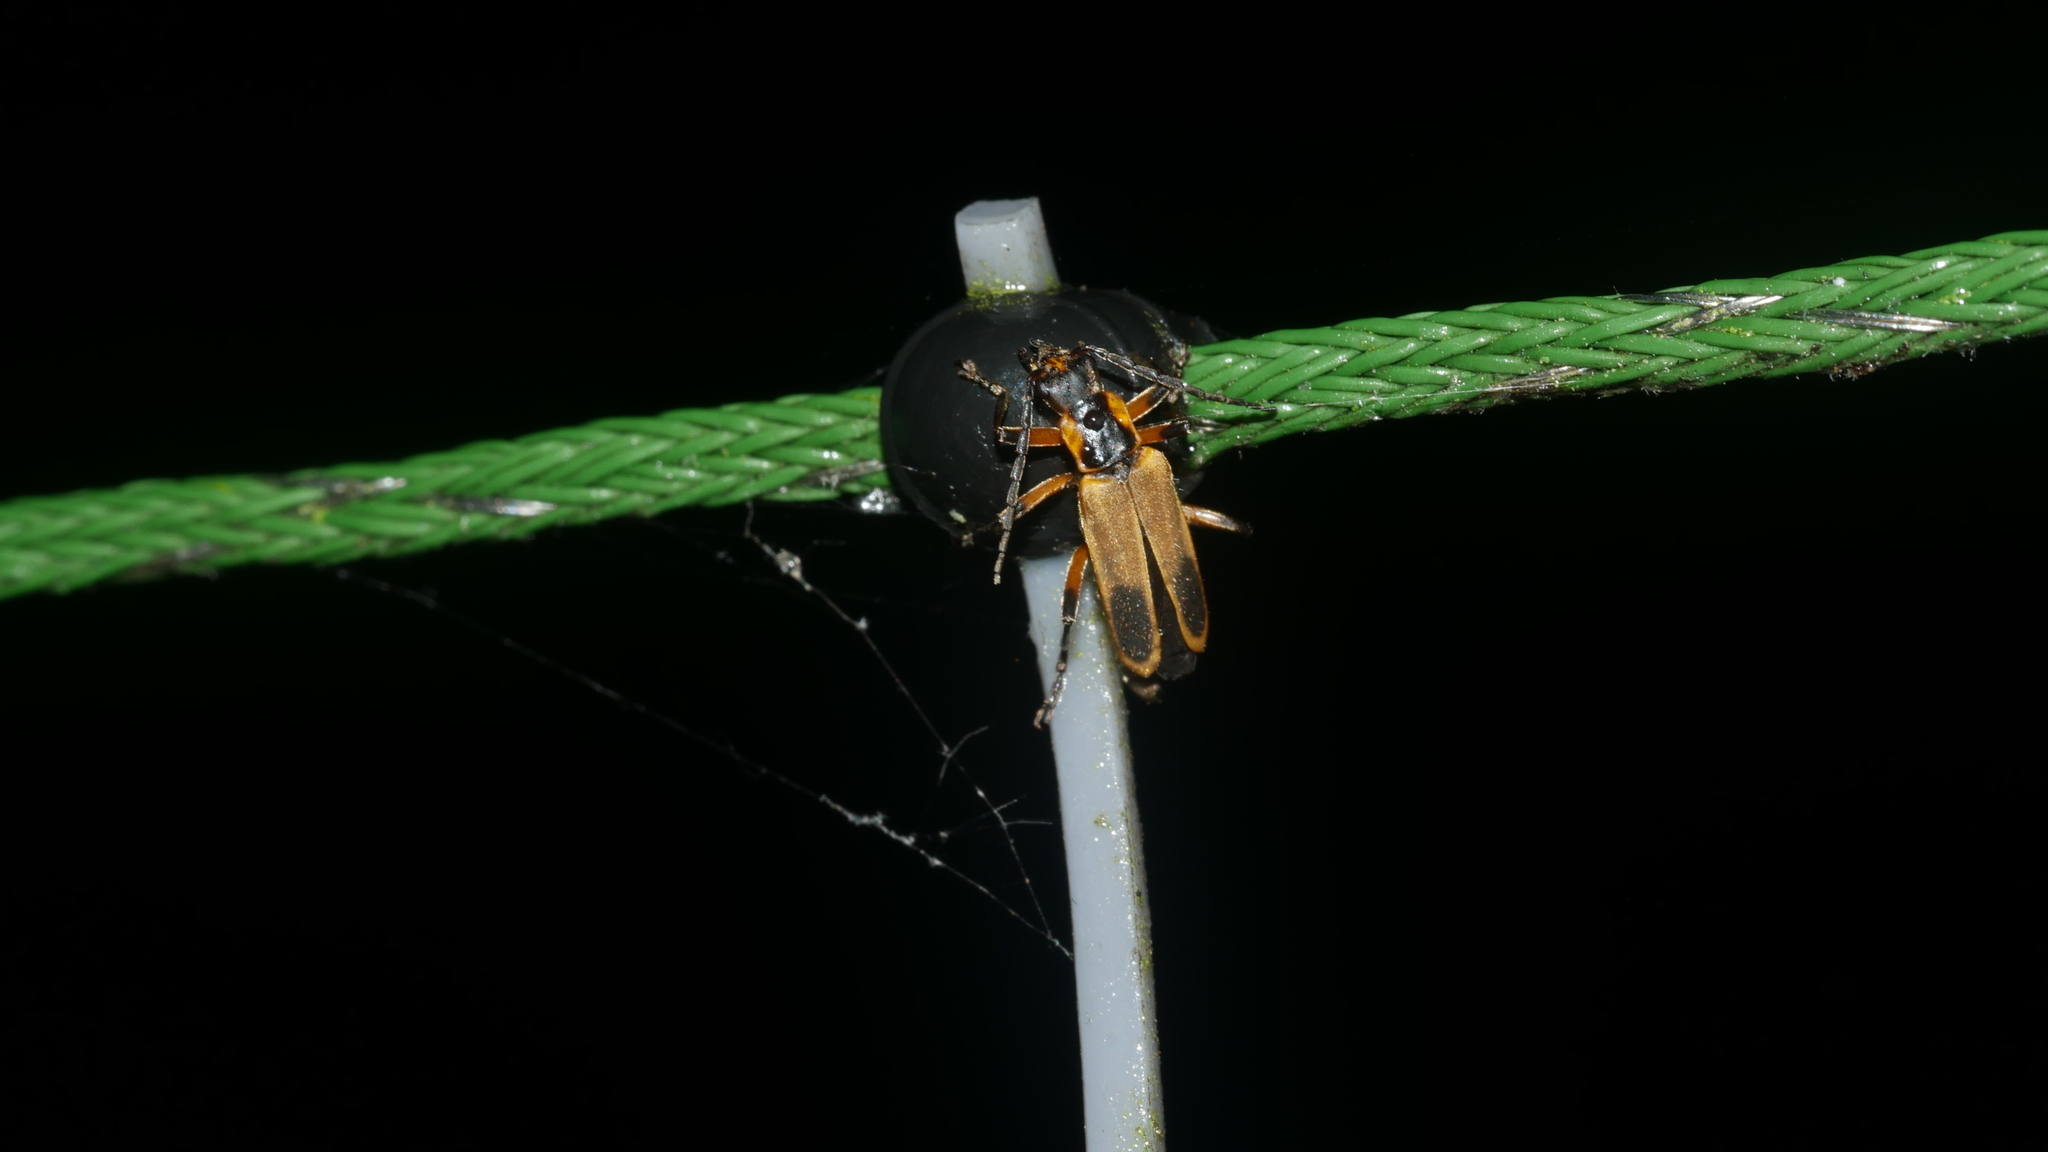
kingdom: Animalia
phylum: Arthropoda
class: Insecta
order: Coleoptera
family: Cantharidae
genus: Chauliognathus
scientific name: Chauliognathus marginatus
